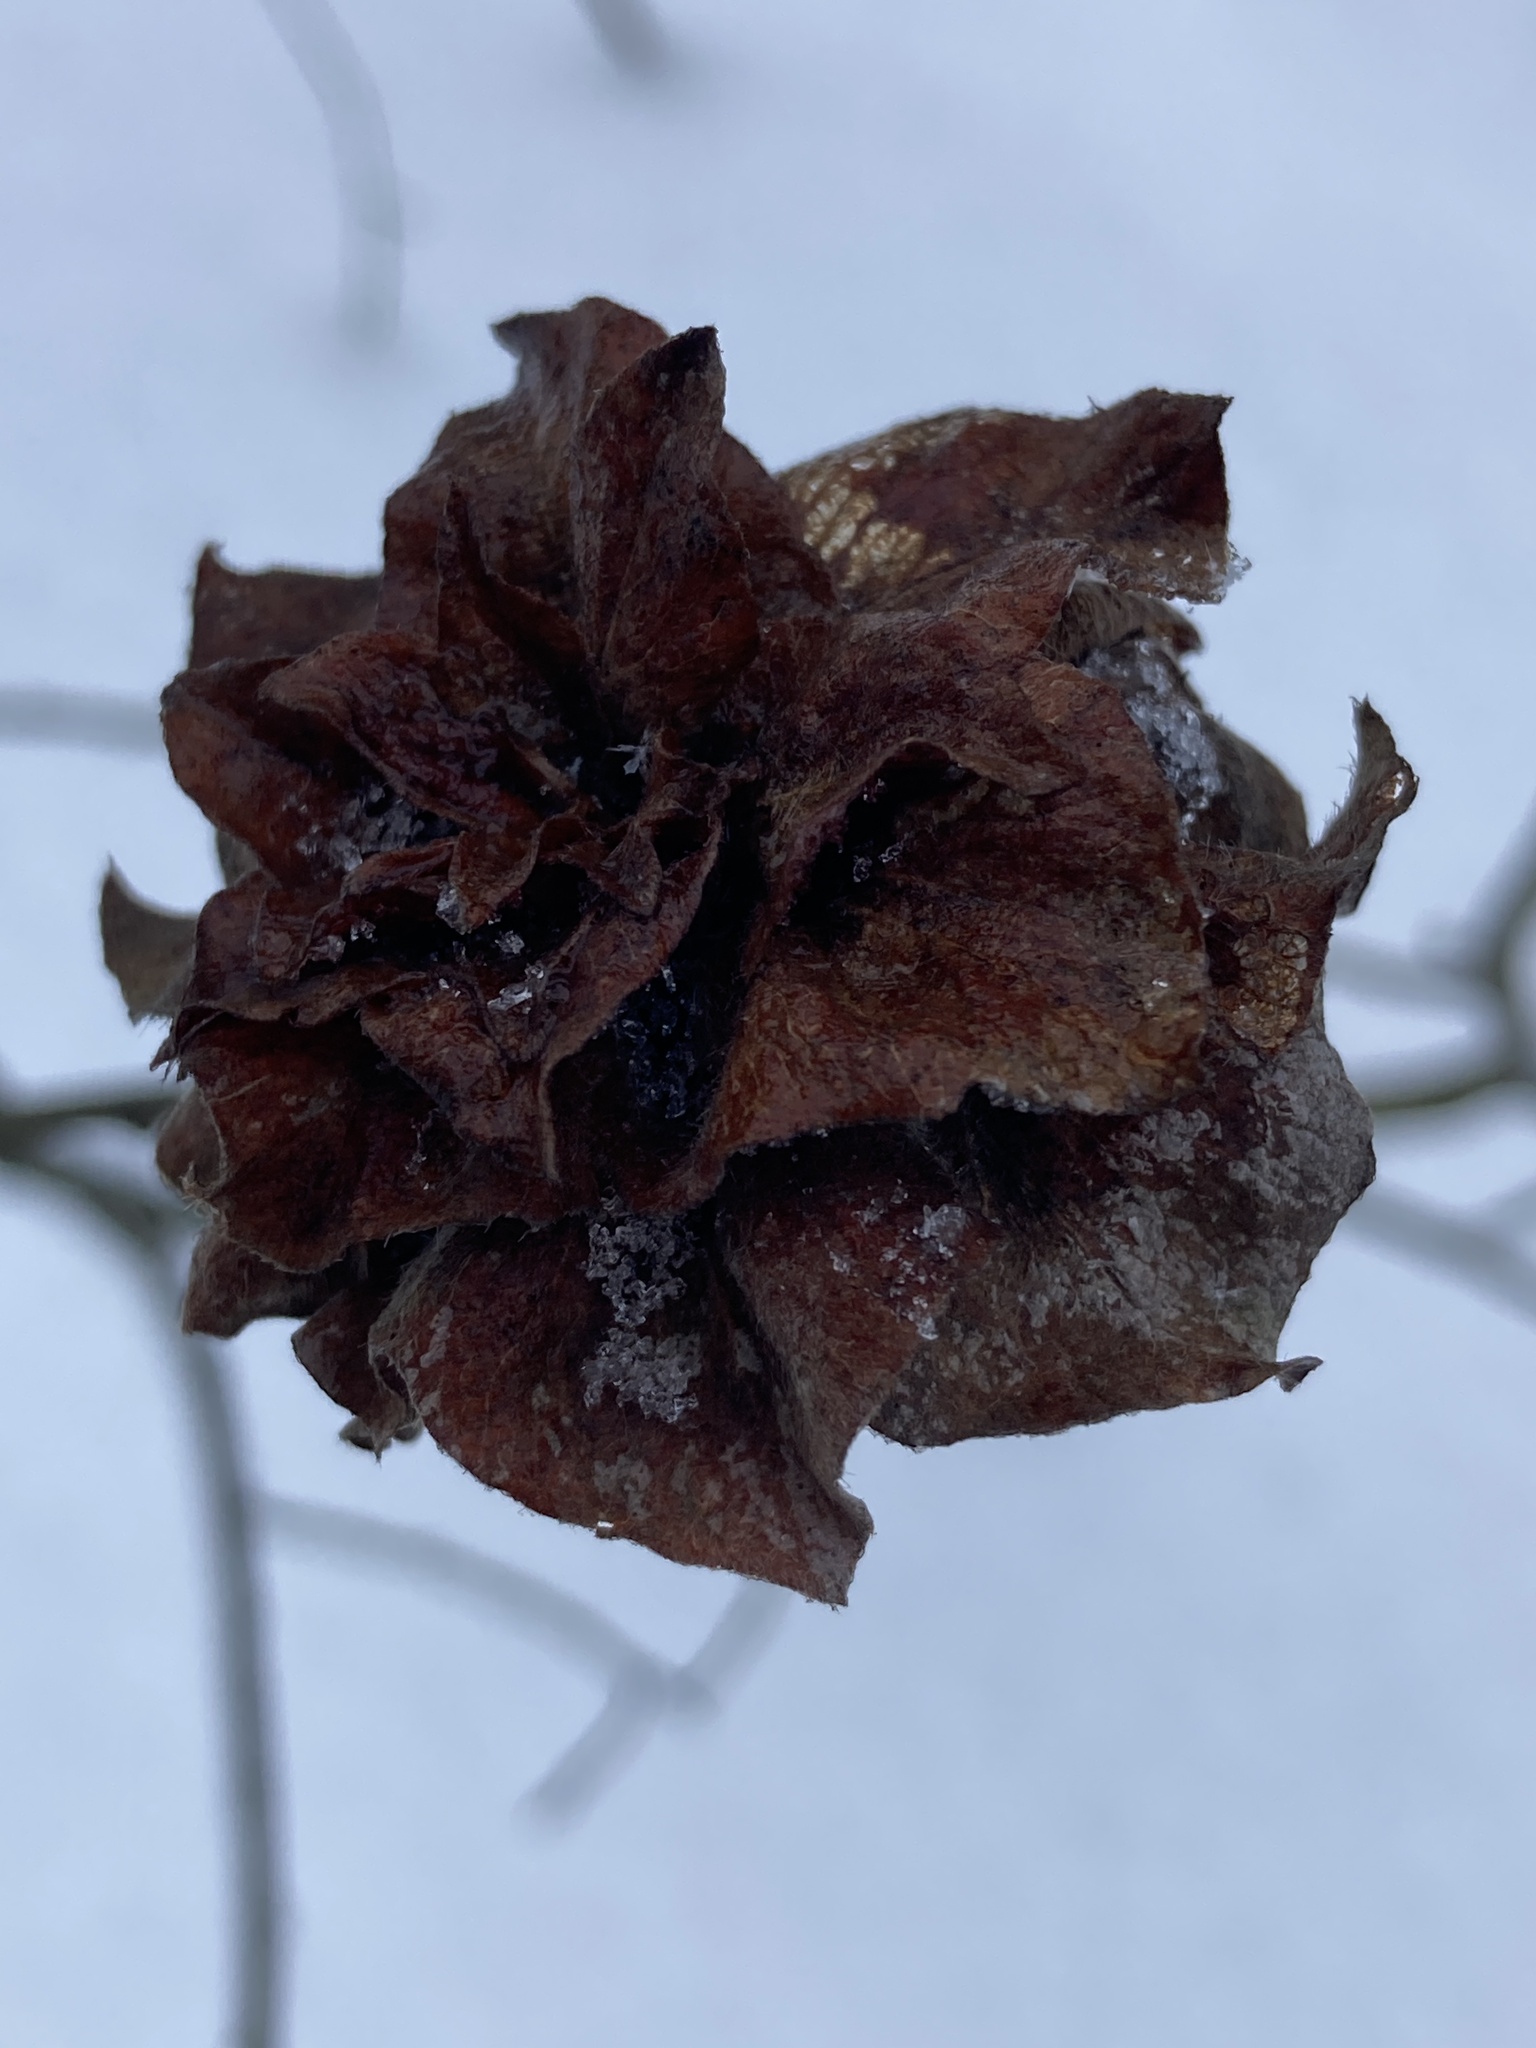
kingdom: Animalia
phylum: Arthropoda
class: Insecta
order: Diptera
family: Cecidomyiidae
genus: Rabdophaga
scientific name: Rabdophaga rosaria
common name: Willow rose gall midge
